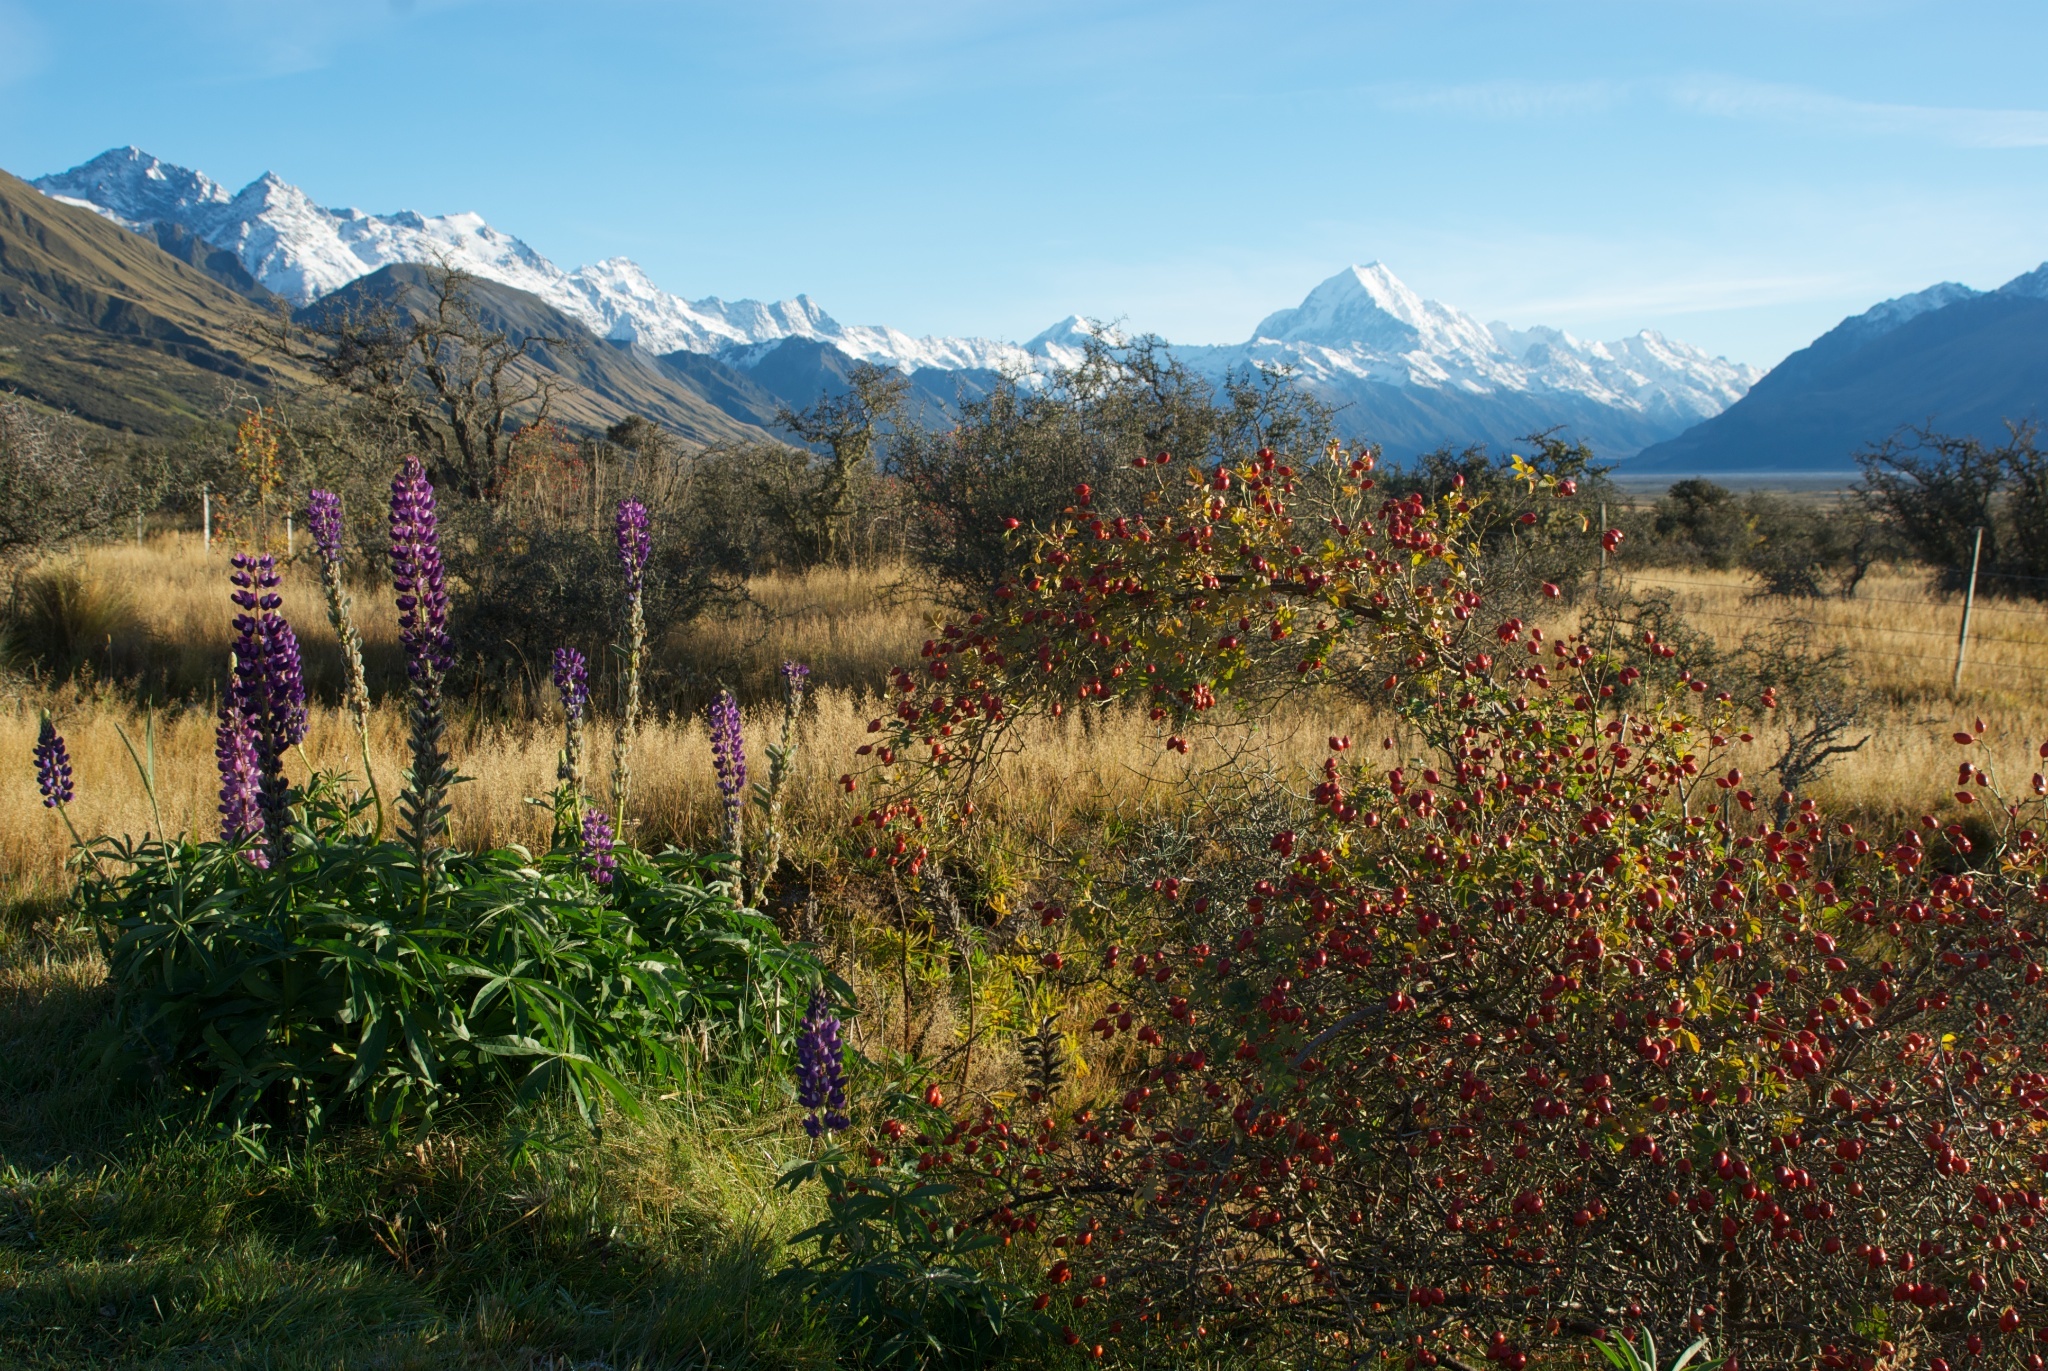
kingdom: Plantae
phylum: Tracheophyta
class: Magnoliopsida
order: Fabales
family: Fabaceae
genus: Lupinus
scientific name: Lupinus polyphyllus
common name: Garden lupin
